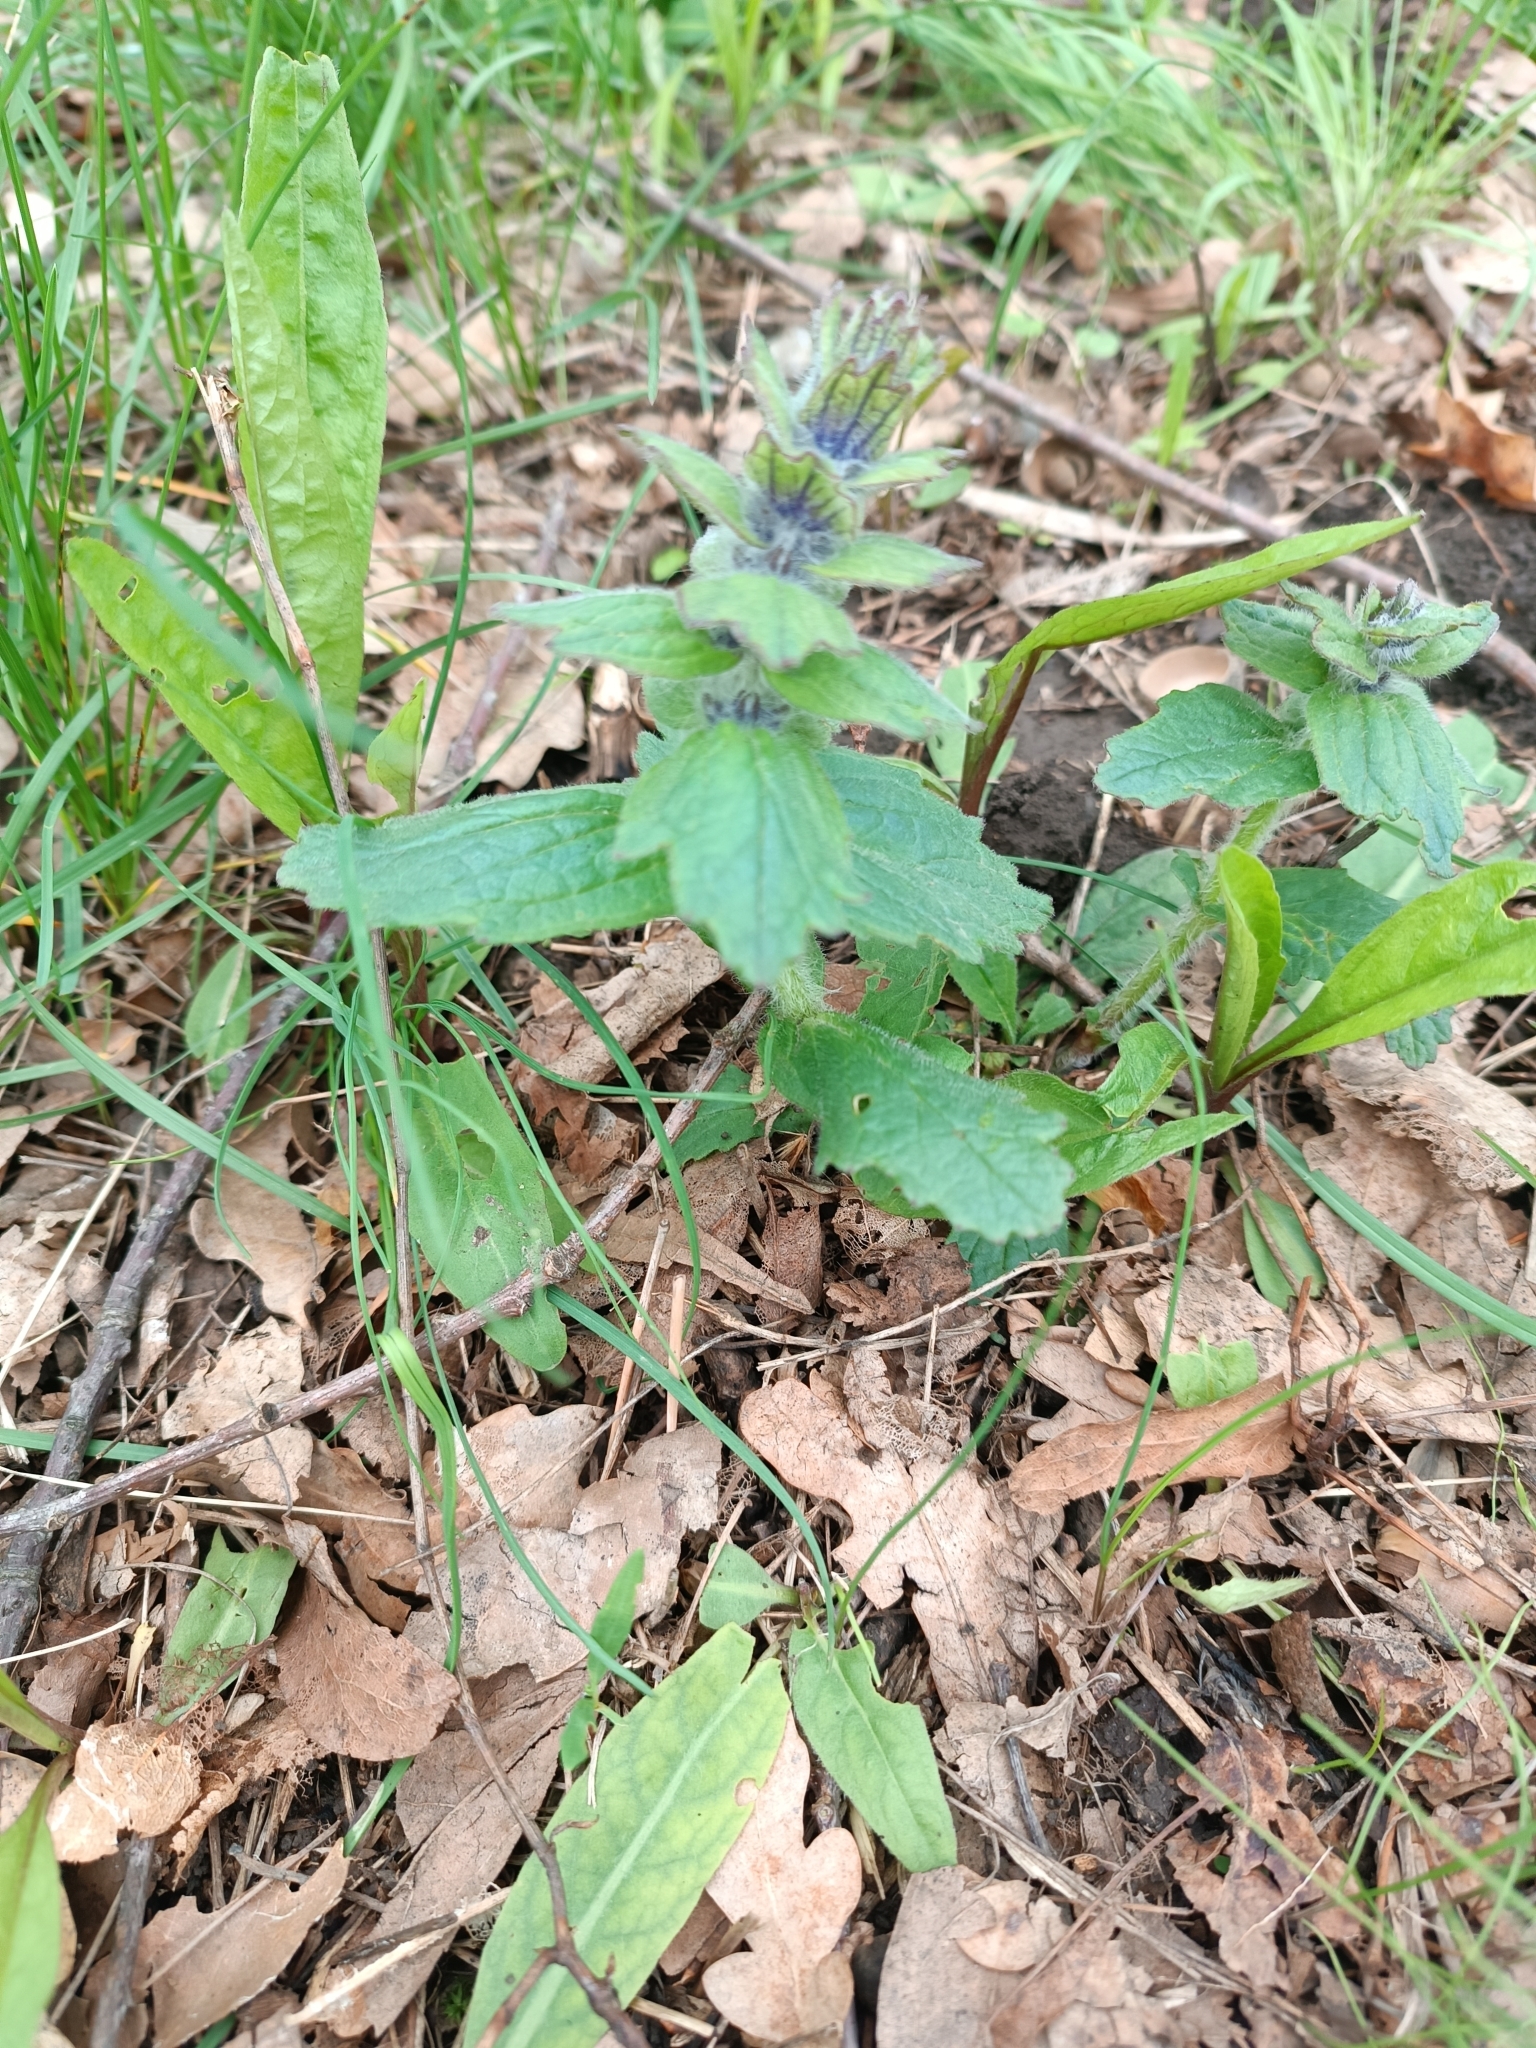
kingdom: Plantae
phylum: Tracheophyta
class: Magnoliopsida
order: Lamiales
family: Lamiaceae
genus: Ajuga
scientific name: Ajuga genevensis
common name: Blue bugle
